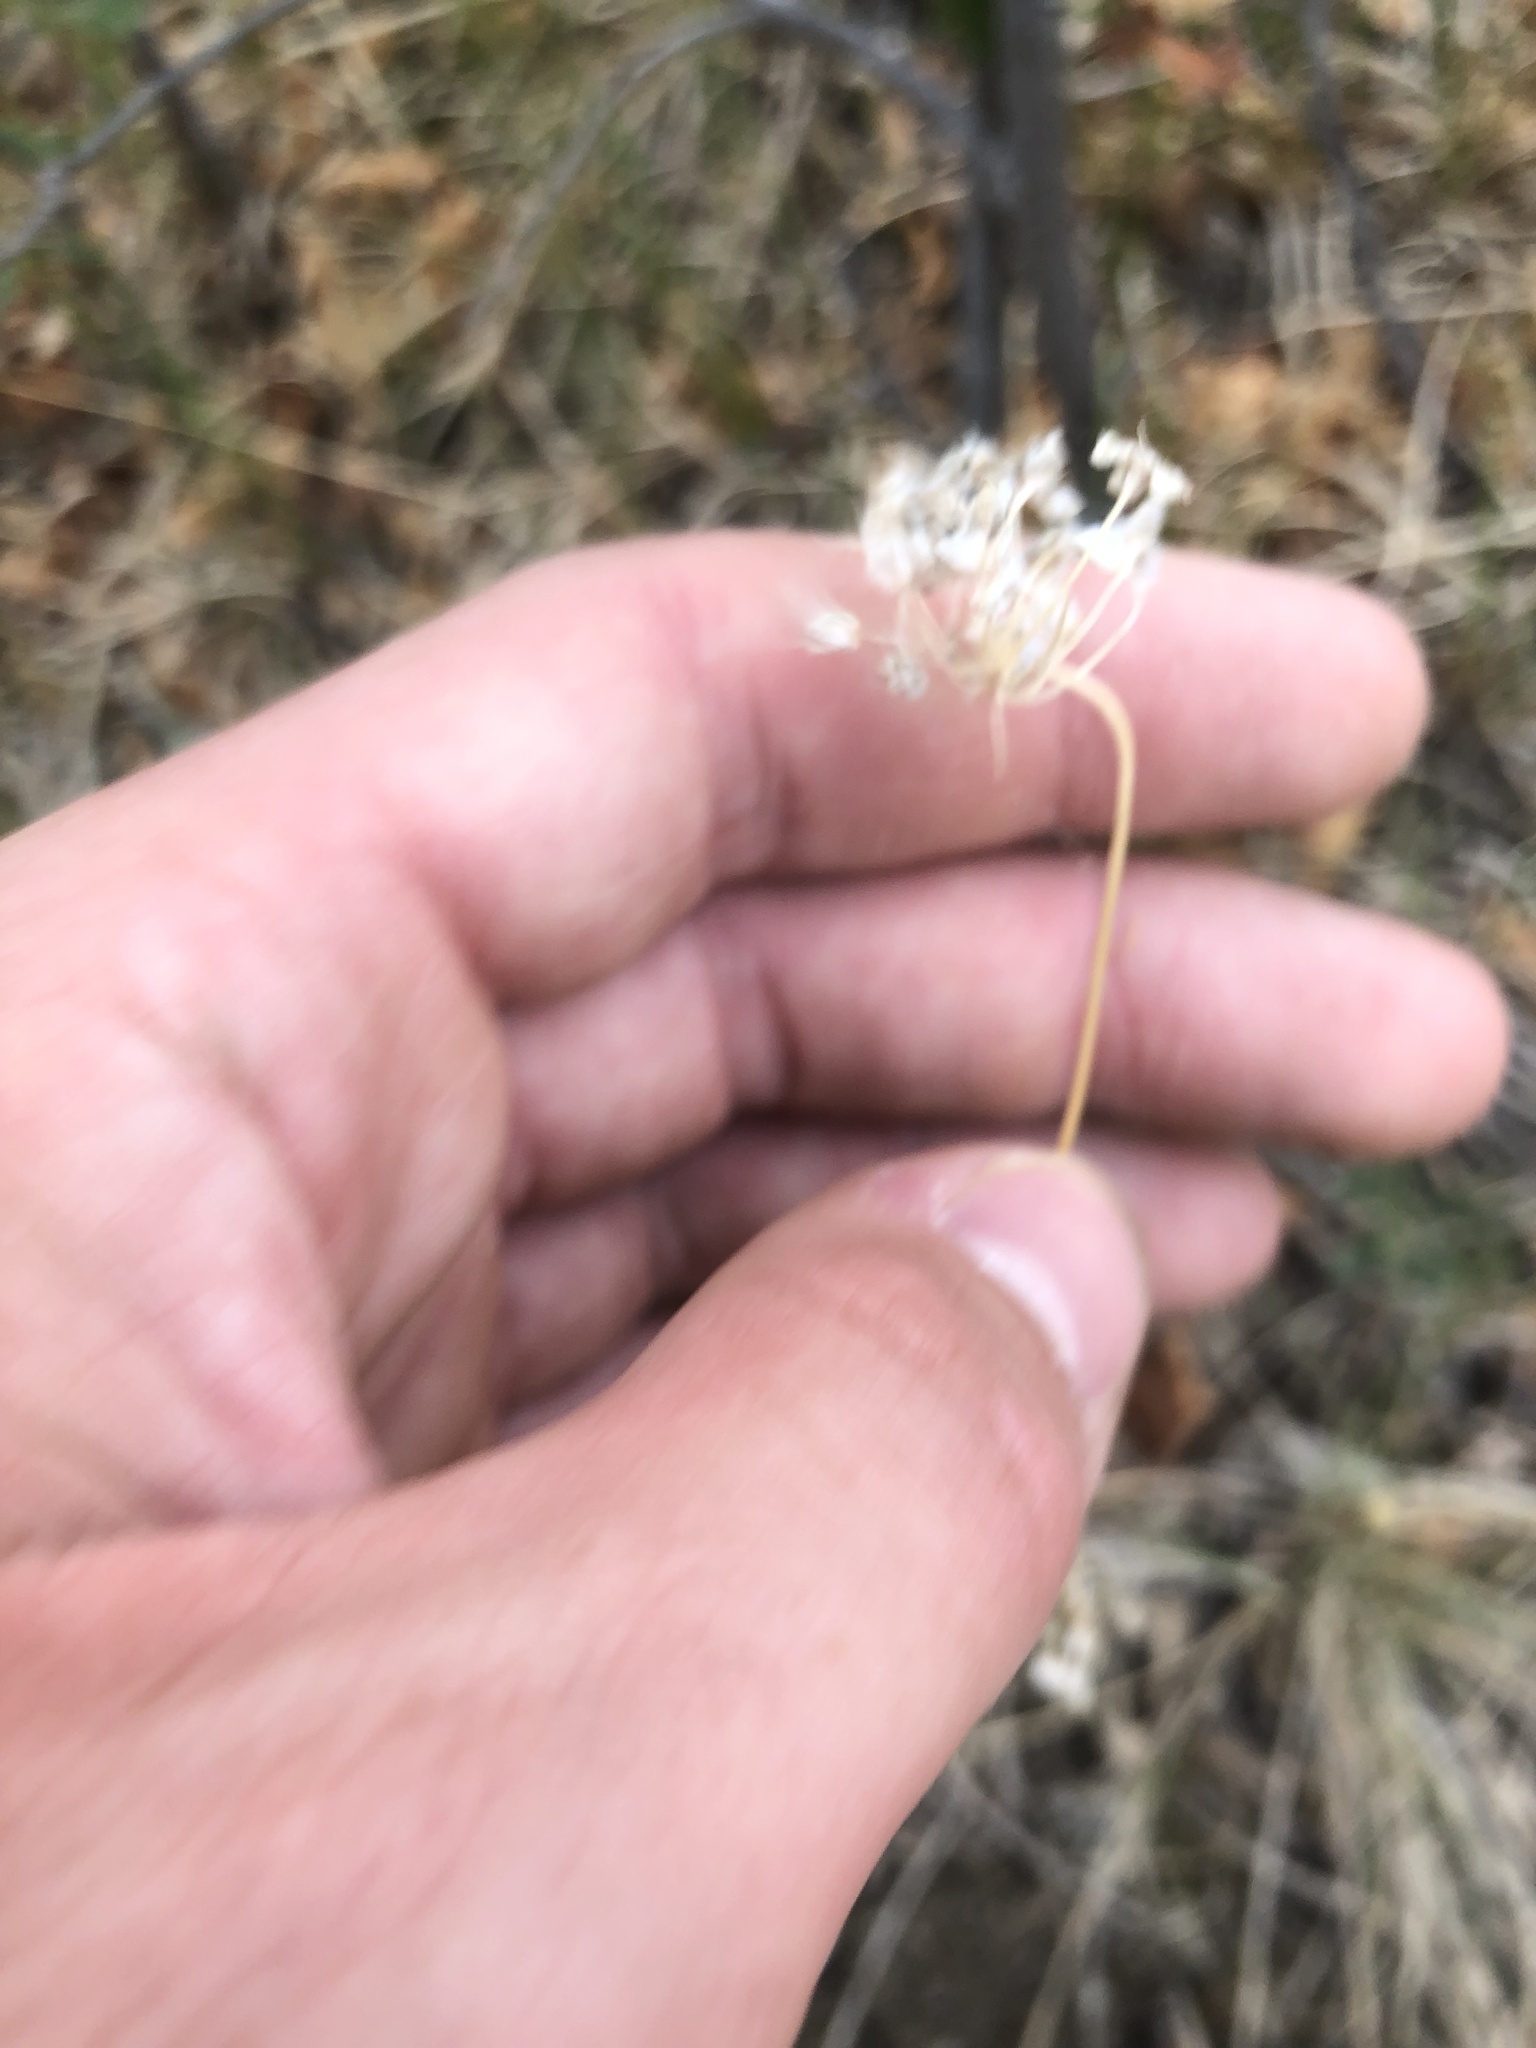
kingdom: Plantae
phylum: Tracheophyta
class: Liliopsida
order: Asparagales
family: Amaryllidaceae
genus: Allium
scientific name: Allium cernuum
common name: Nodding onion
